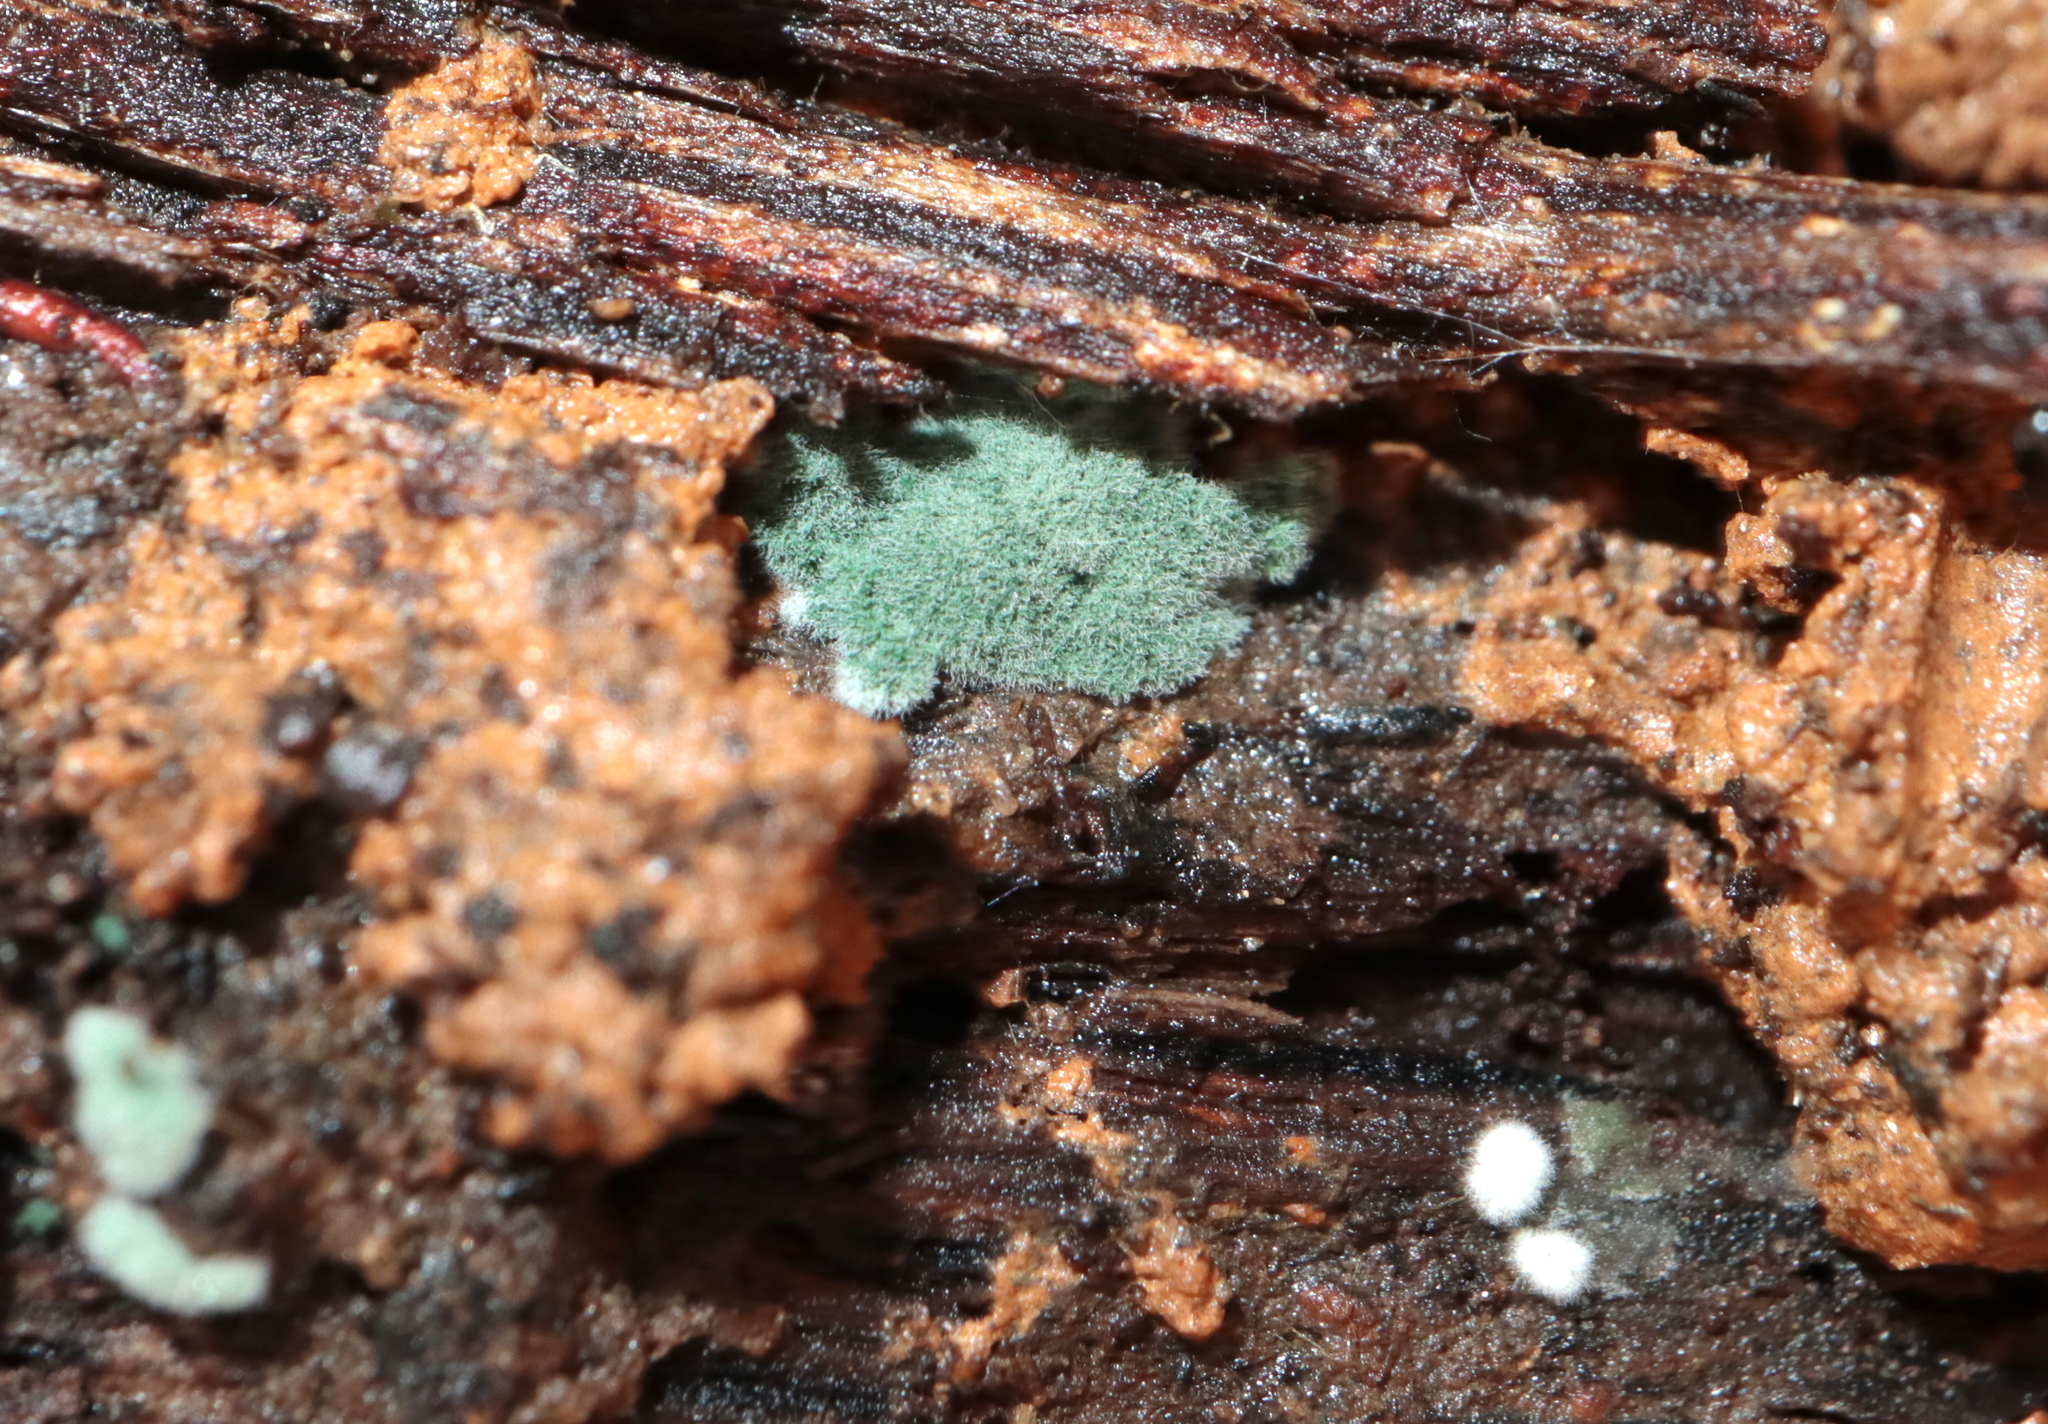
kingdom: Fungi
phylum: Ascomycota
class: Sordariomycetes
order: Hypocreales
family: Hypocreaceae
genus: Trichoderma
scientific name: Trichoderma viride
